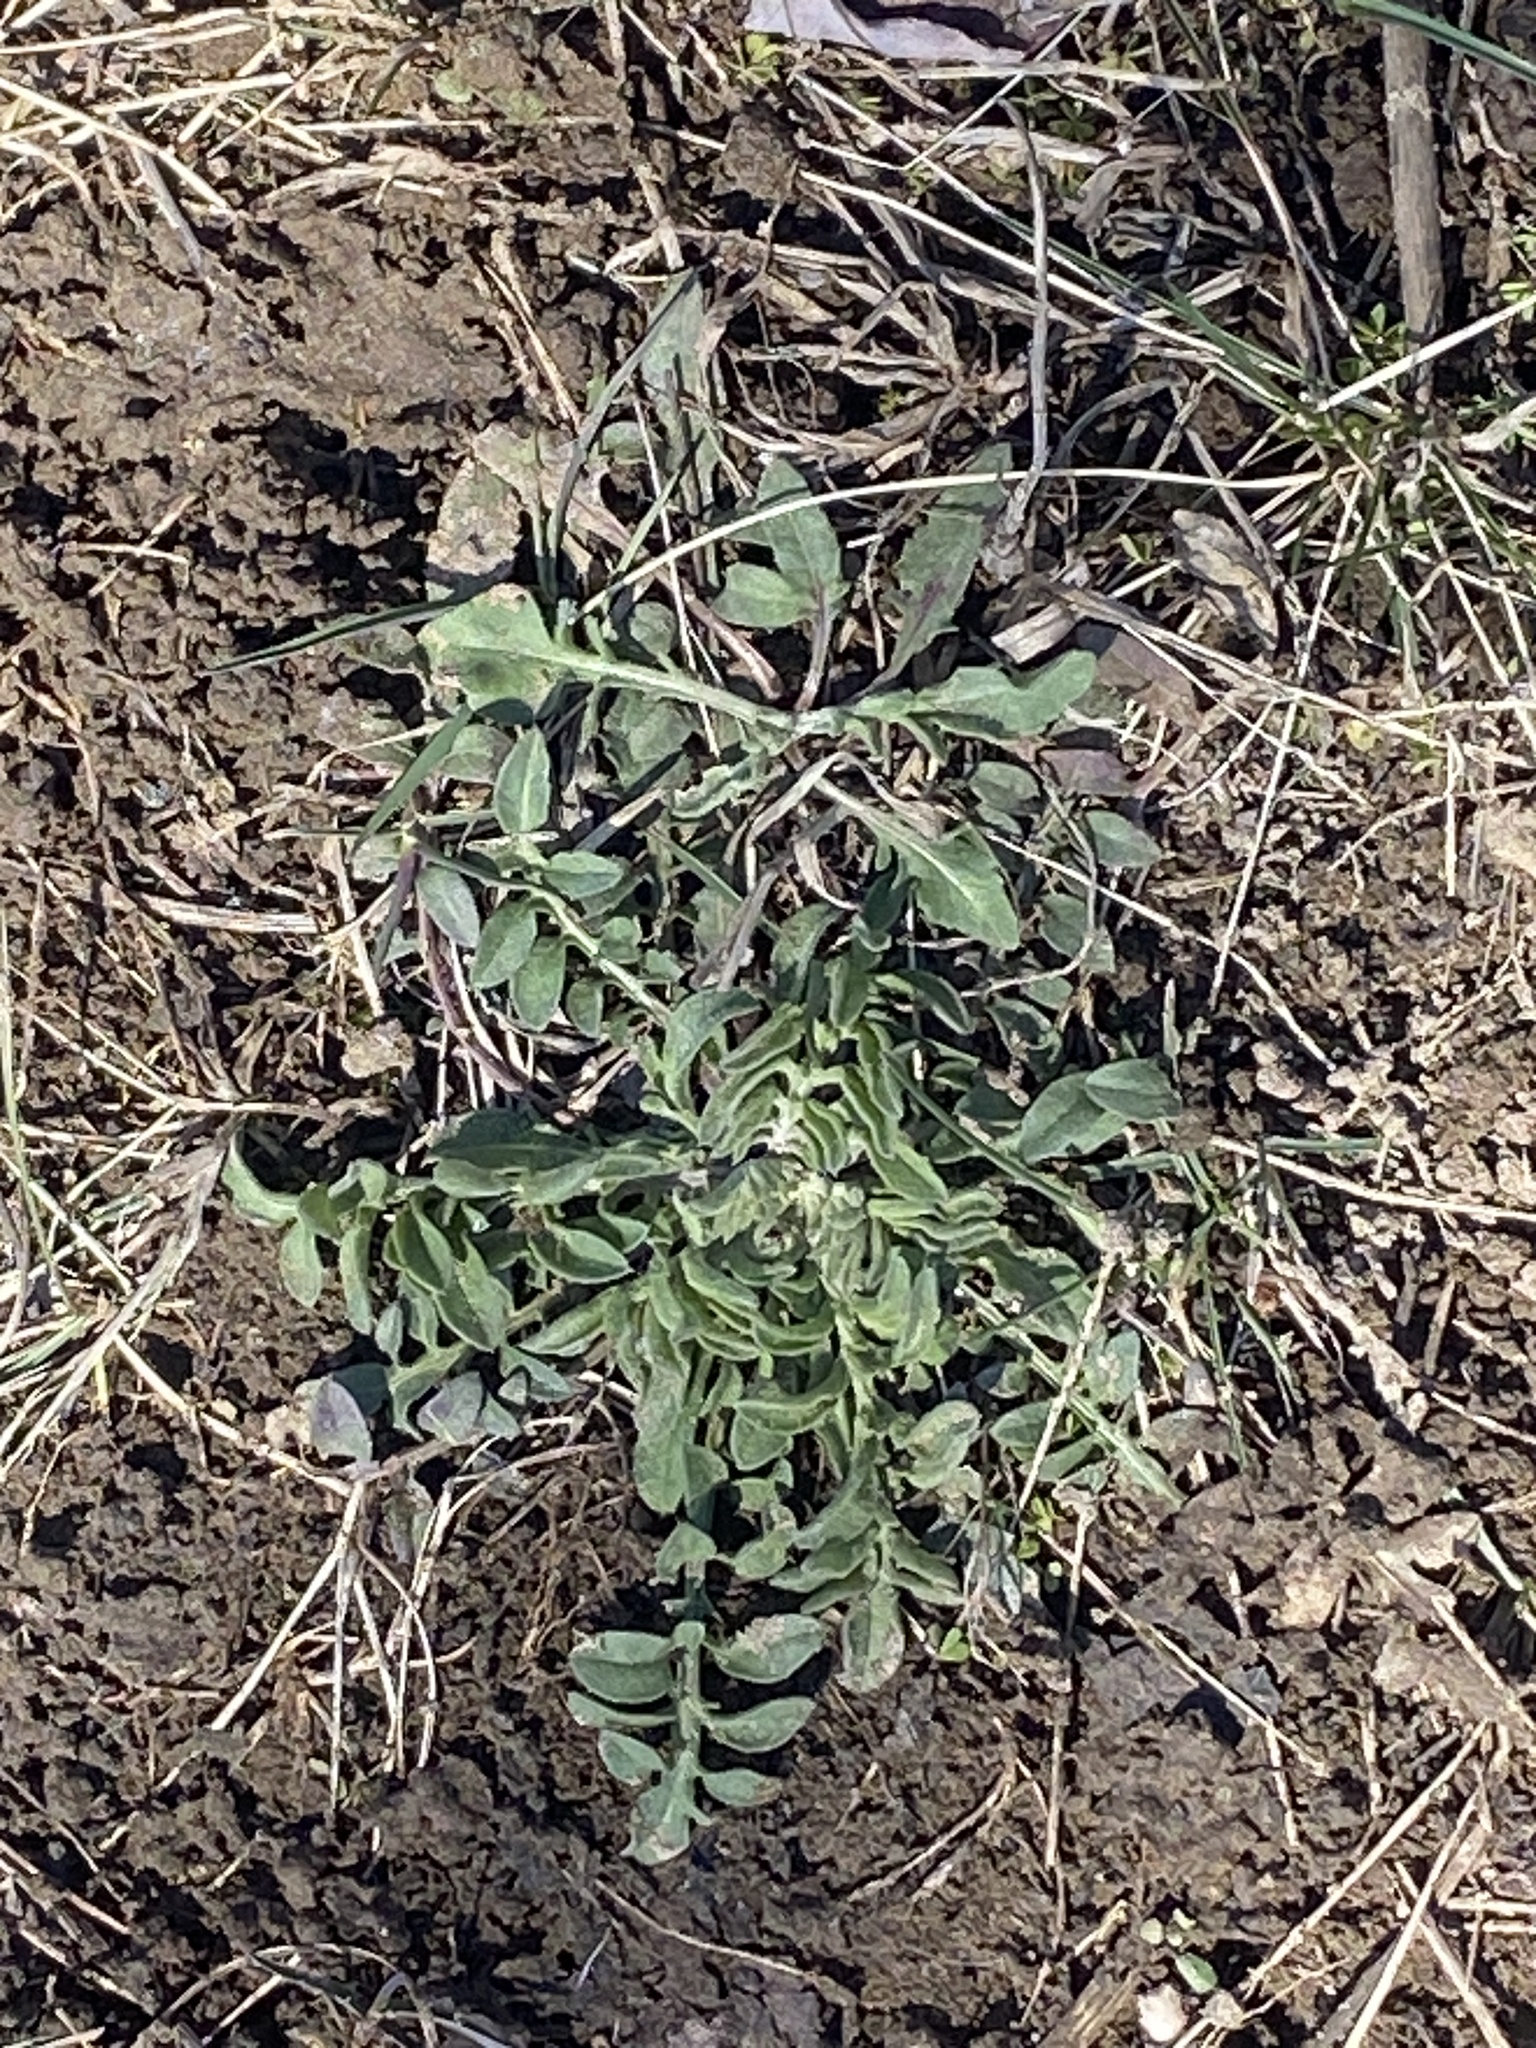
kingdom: Plantae
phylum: Tracheophyta
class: Magnoliopsida
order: Asterales
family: Asteraceae
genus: Centaurea
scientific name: Centaurea stoebe
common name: Spotted knapweed
